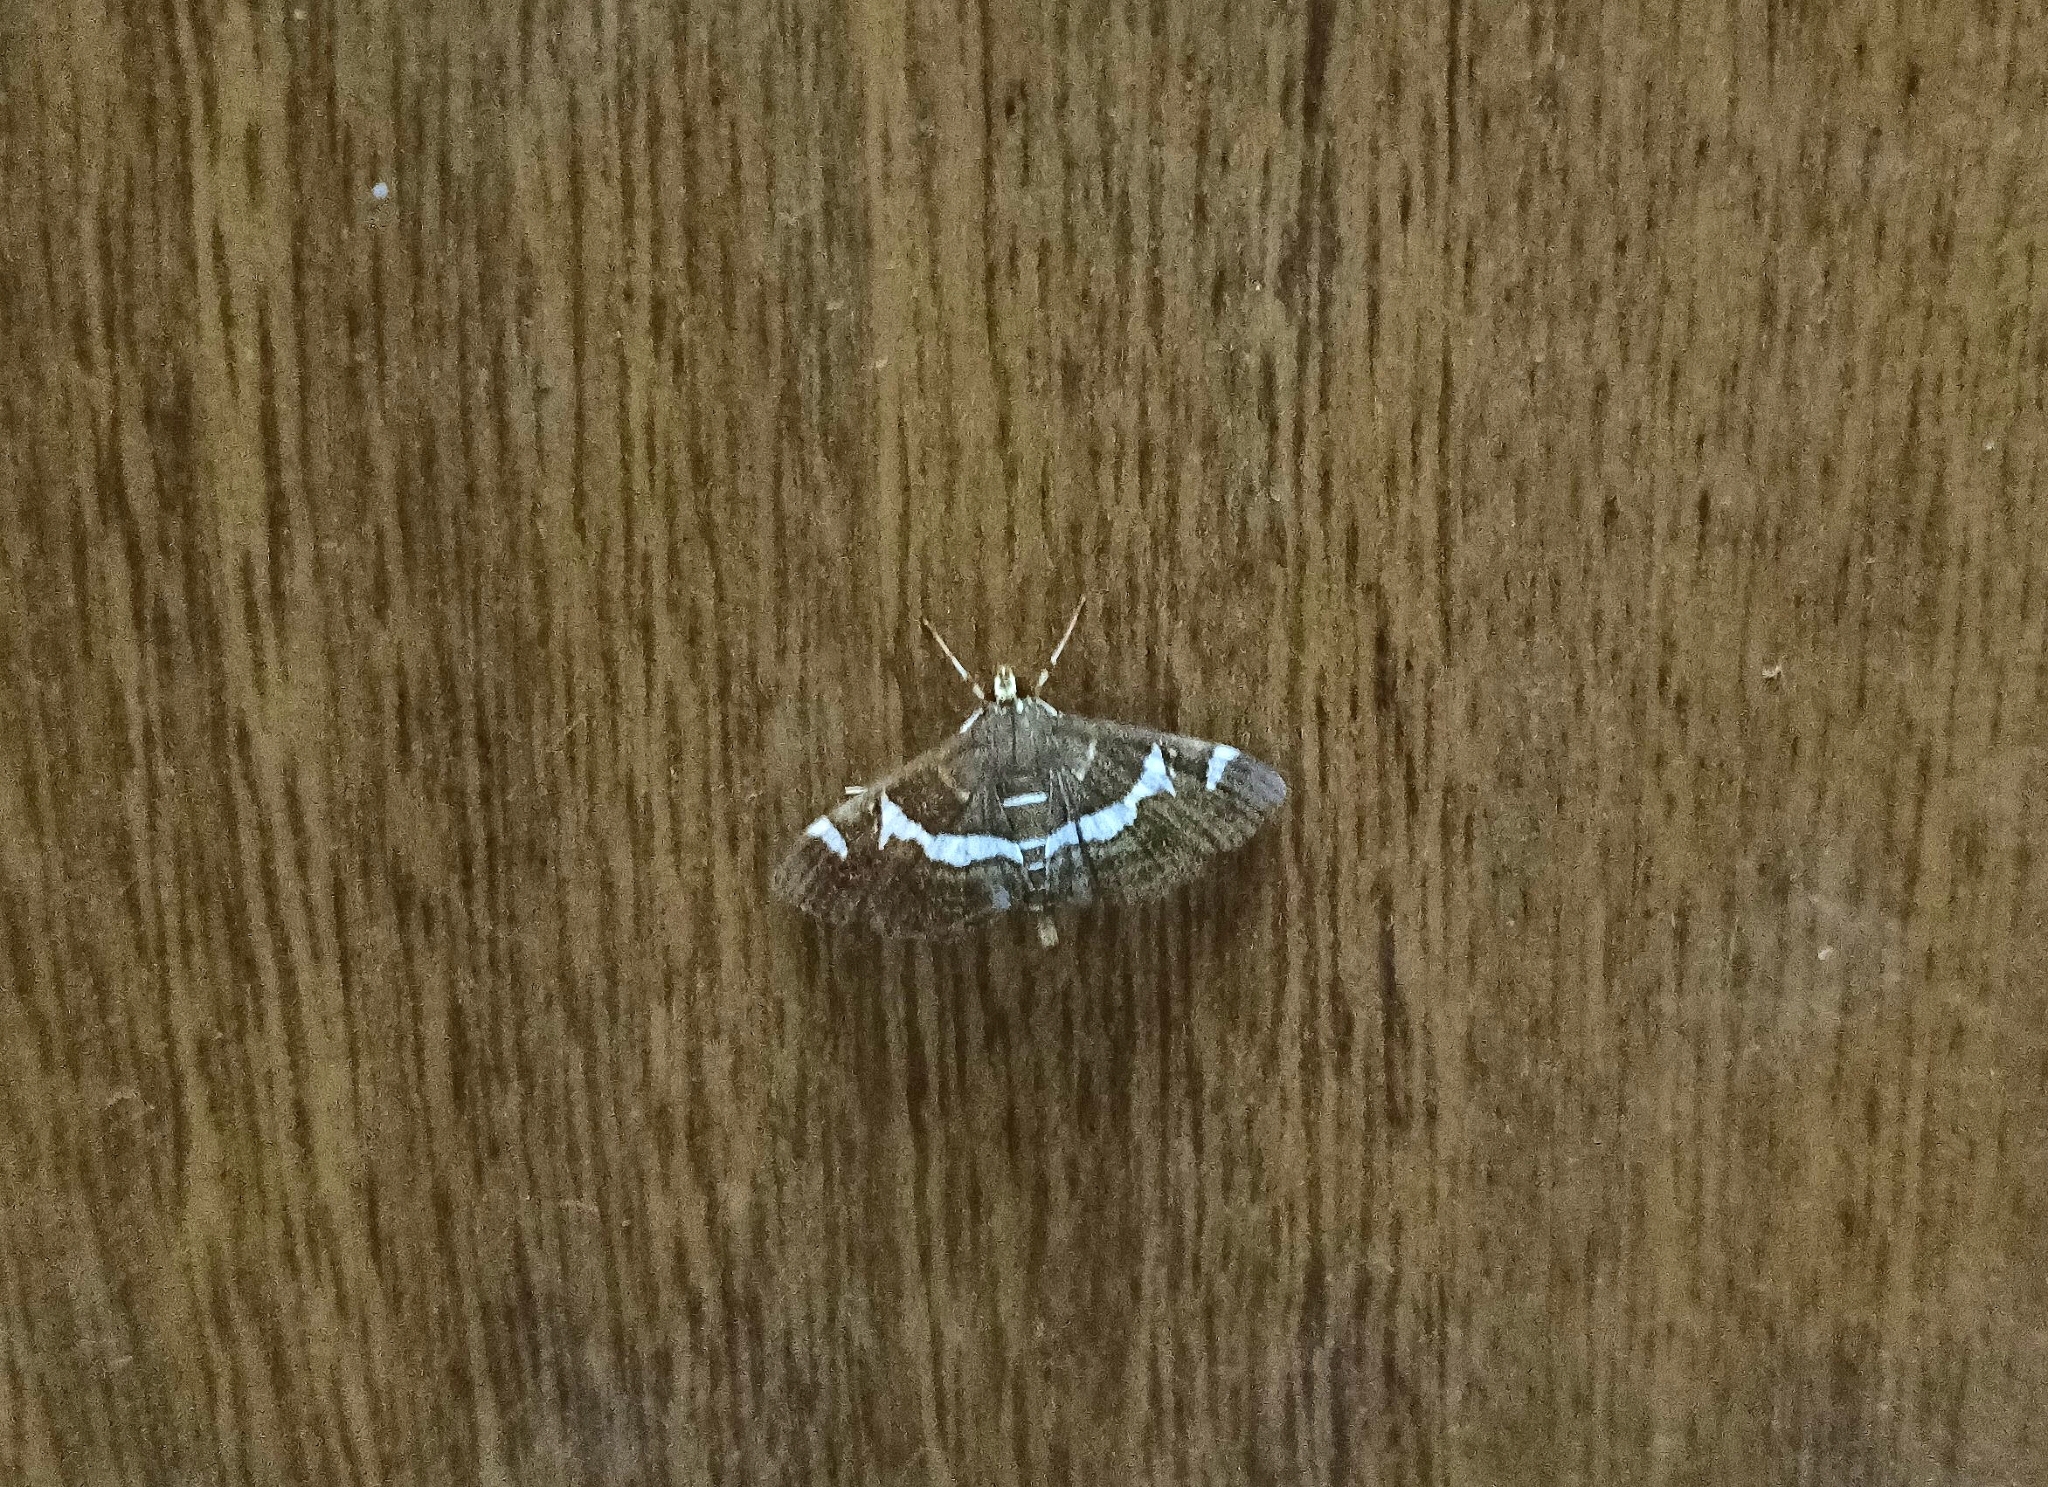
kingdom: Animalia
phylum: Arthropoda
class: Insecta
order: Lepidoptera
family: Crambidae
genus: Spoladea
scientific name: Spoladea recurvalis
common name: Beet webworm moth
